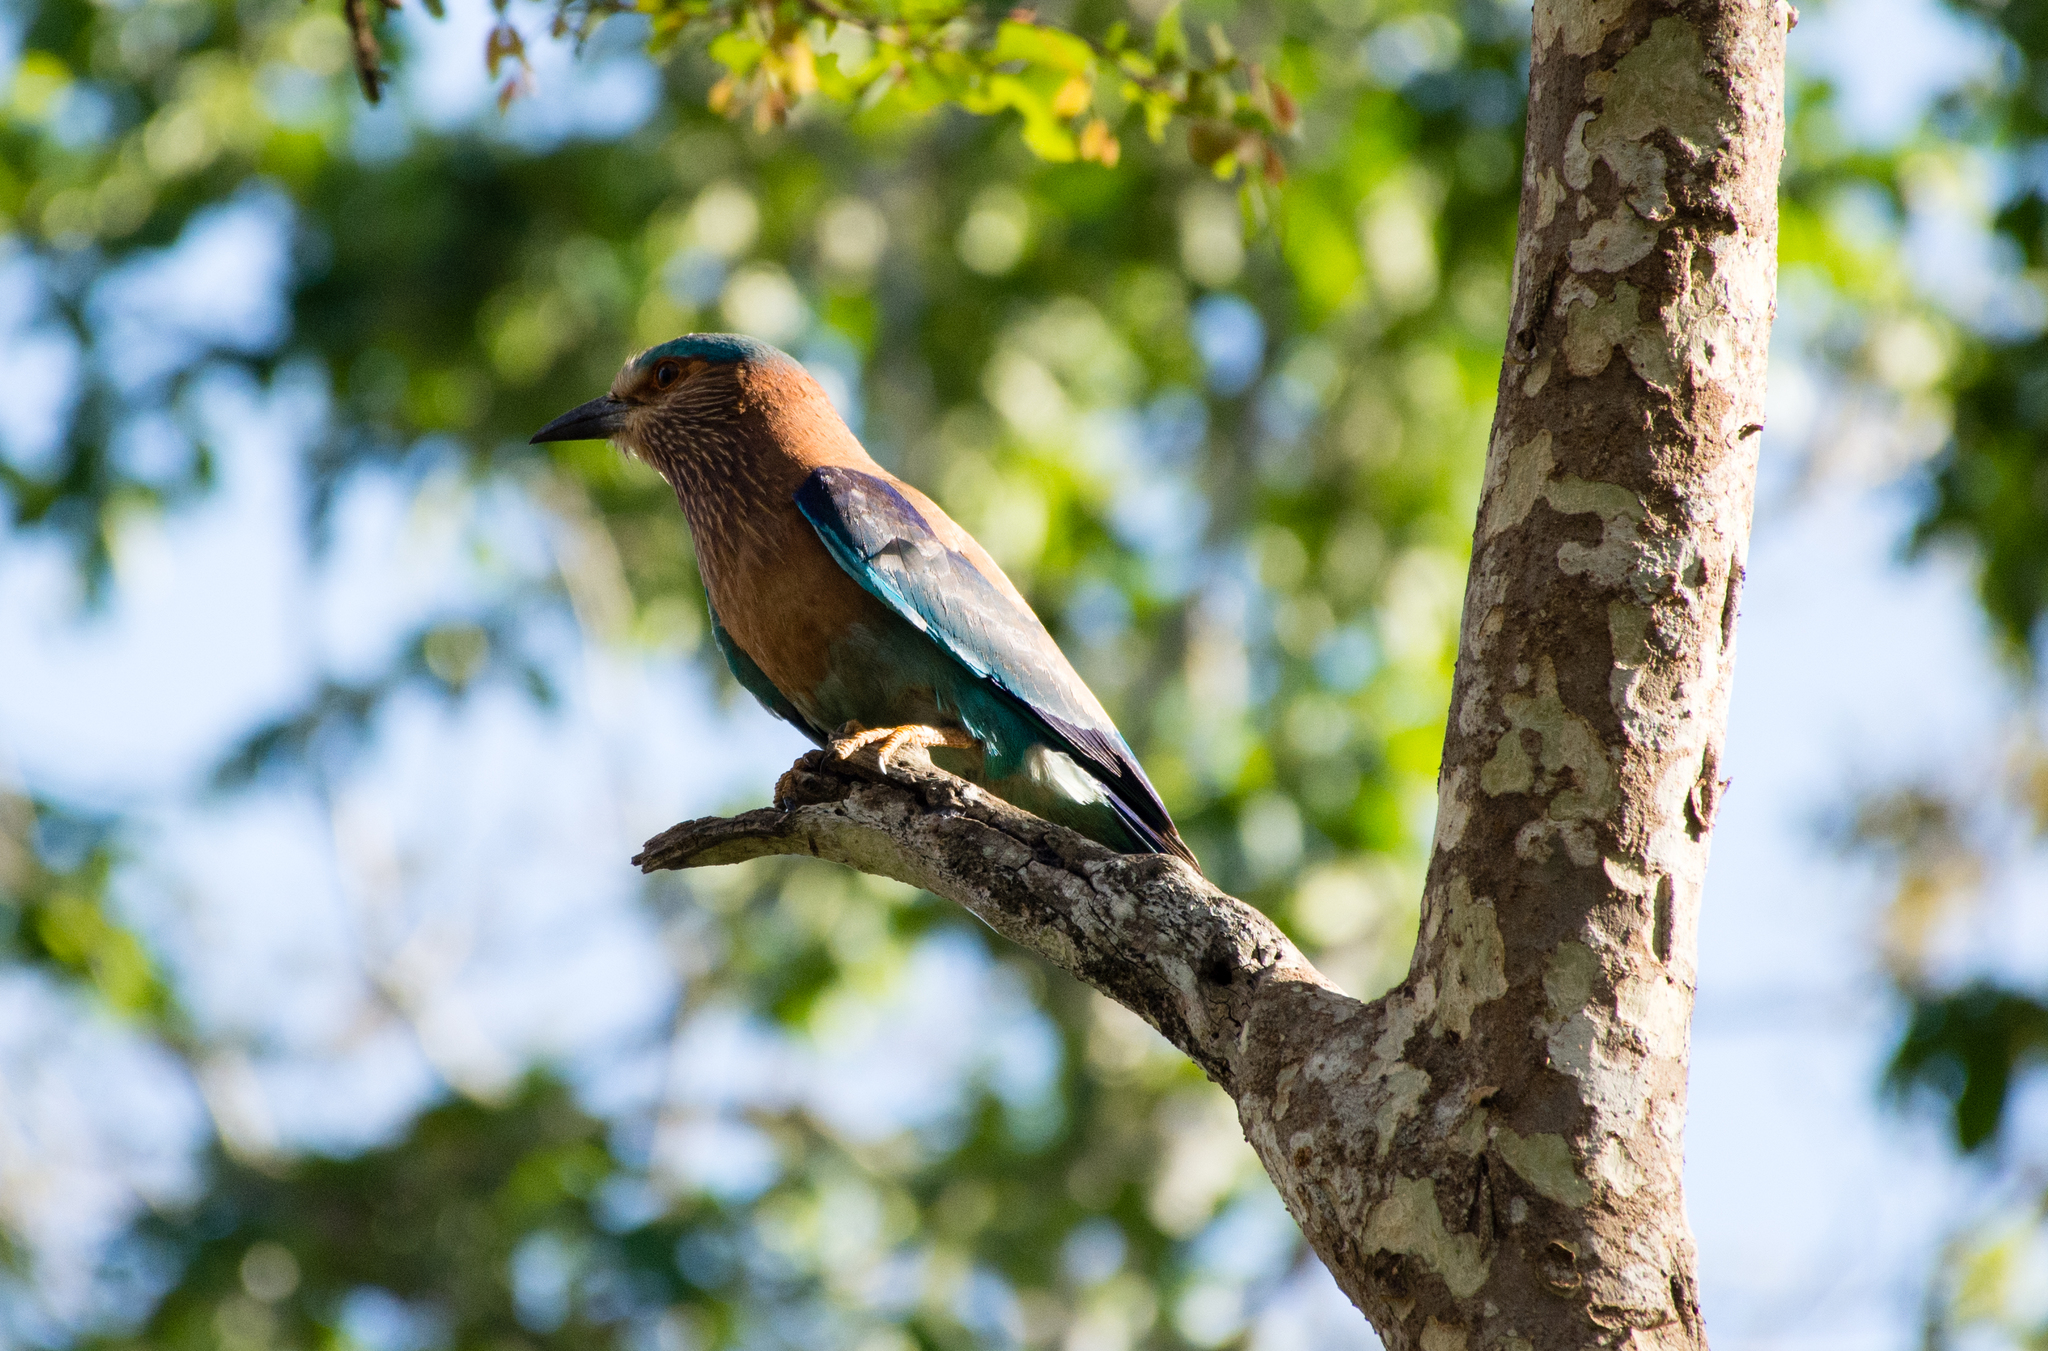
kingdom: Animalia
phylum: Chordata
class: Aves
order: Coraciiformes
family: Coraciidae
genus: Coracias
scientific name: Coracias benghalensis
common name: Indian roller
